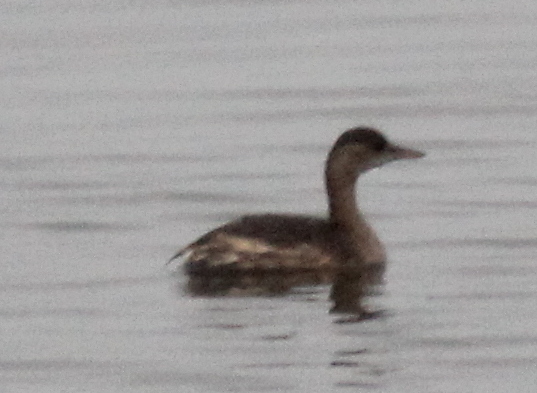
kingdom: Animalia
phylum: Chordata
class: Aves
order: Podicipediformes
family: Podicipedidae
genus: Tachybaptus
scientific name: Tachybaptus ruficollis
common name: Little grebe
